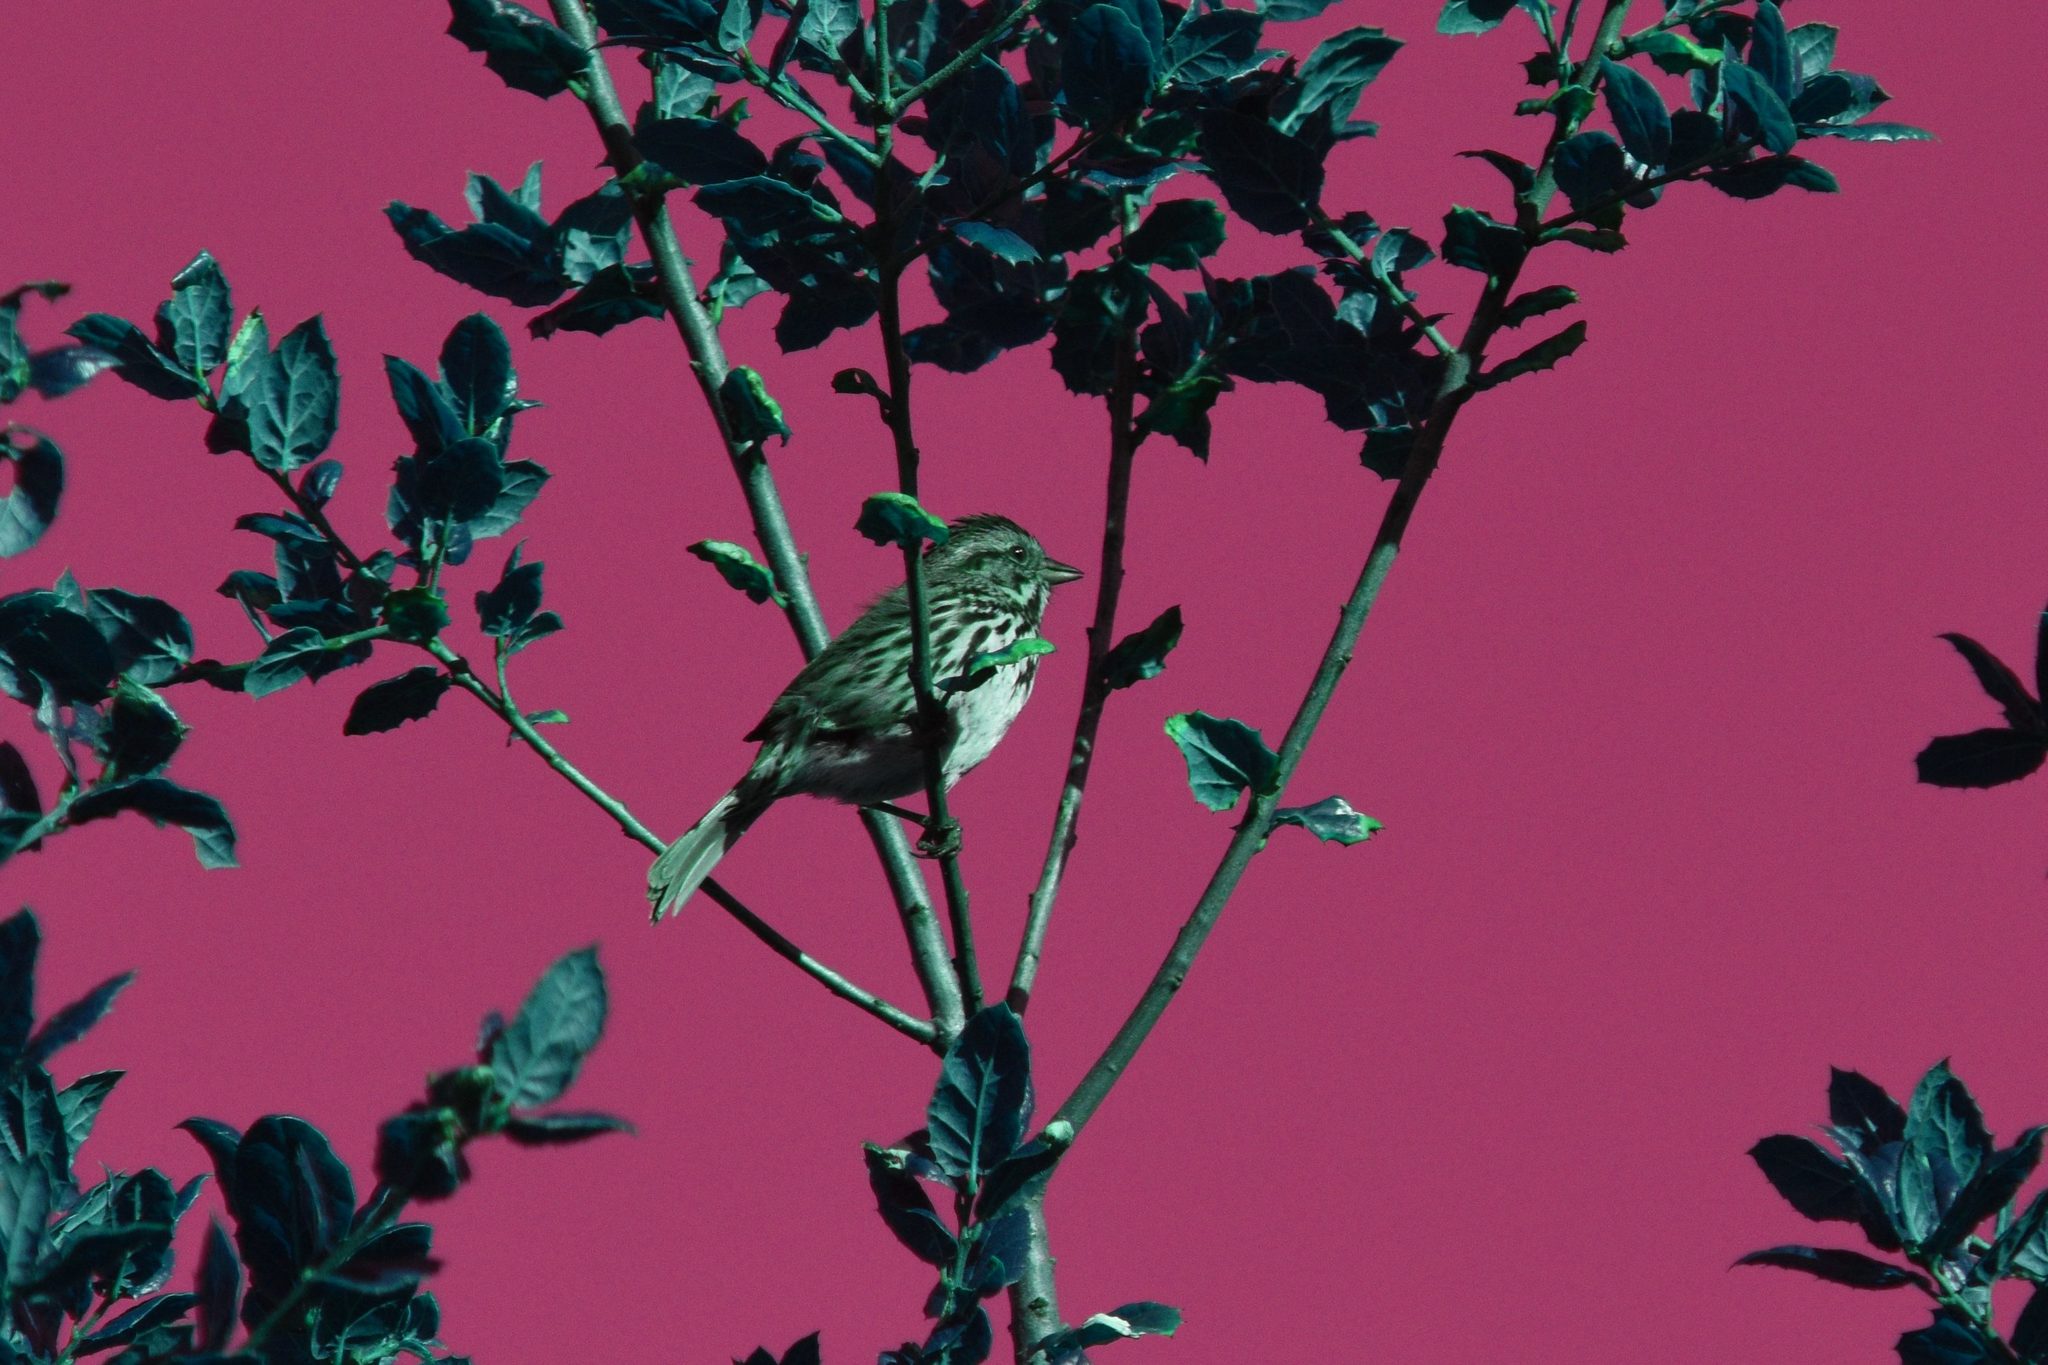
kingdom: Animalia
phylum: Chordata
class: Aves
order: Passeriformes
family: Passerellidae
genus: Melospiza
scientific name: Melospiza melodia
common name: Song sparrow
